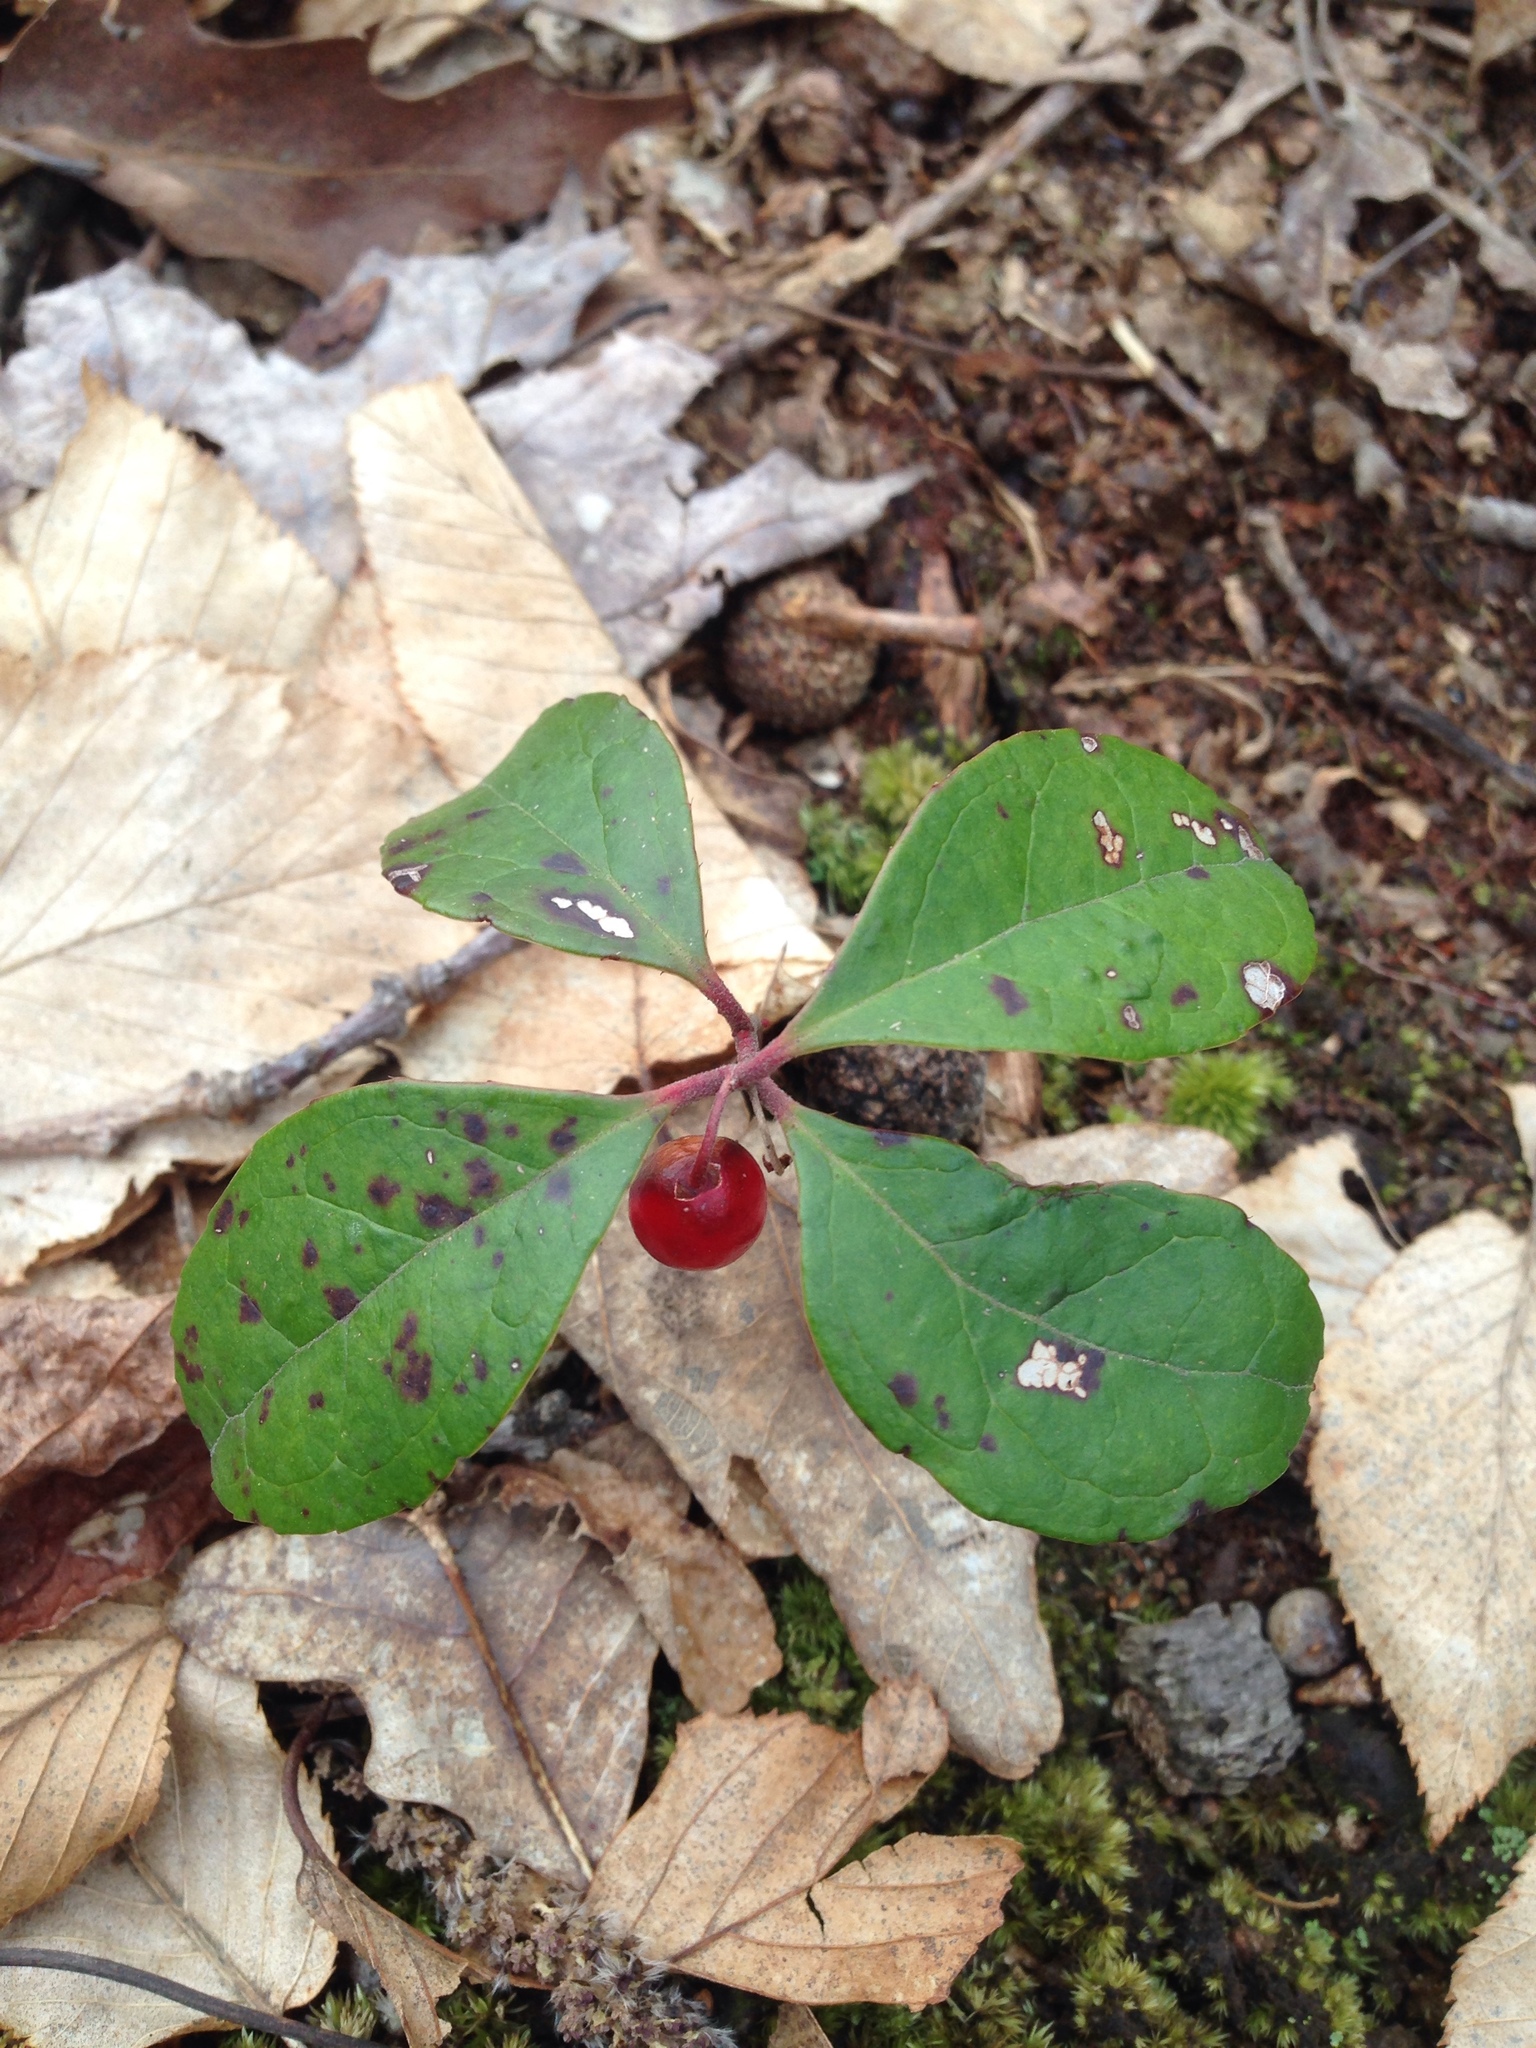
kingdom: Plantae
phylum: Tracheophyta
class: Magnoliopsida
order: Ericales
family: Ericaceae
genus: Gaultheria
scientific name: Gaultheria procumbens
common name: Checkerberry
